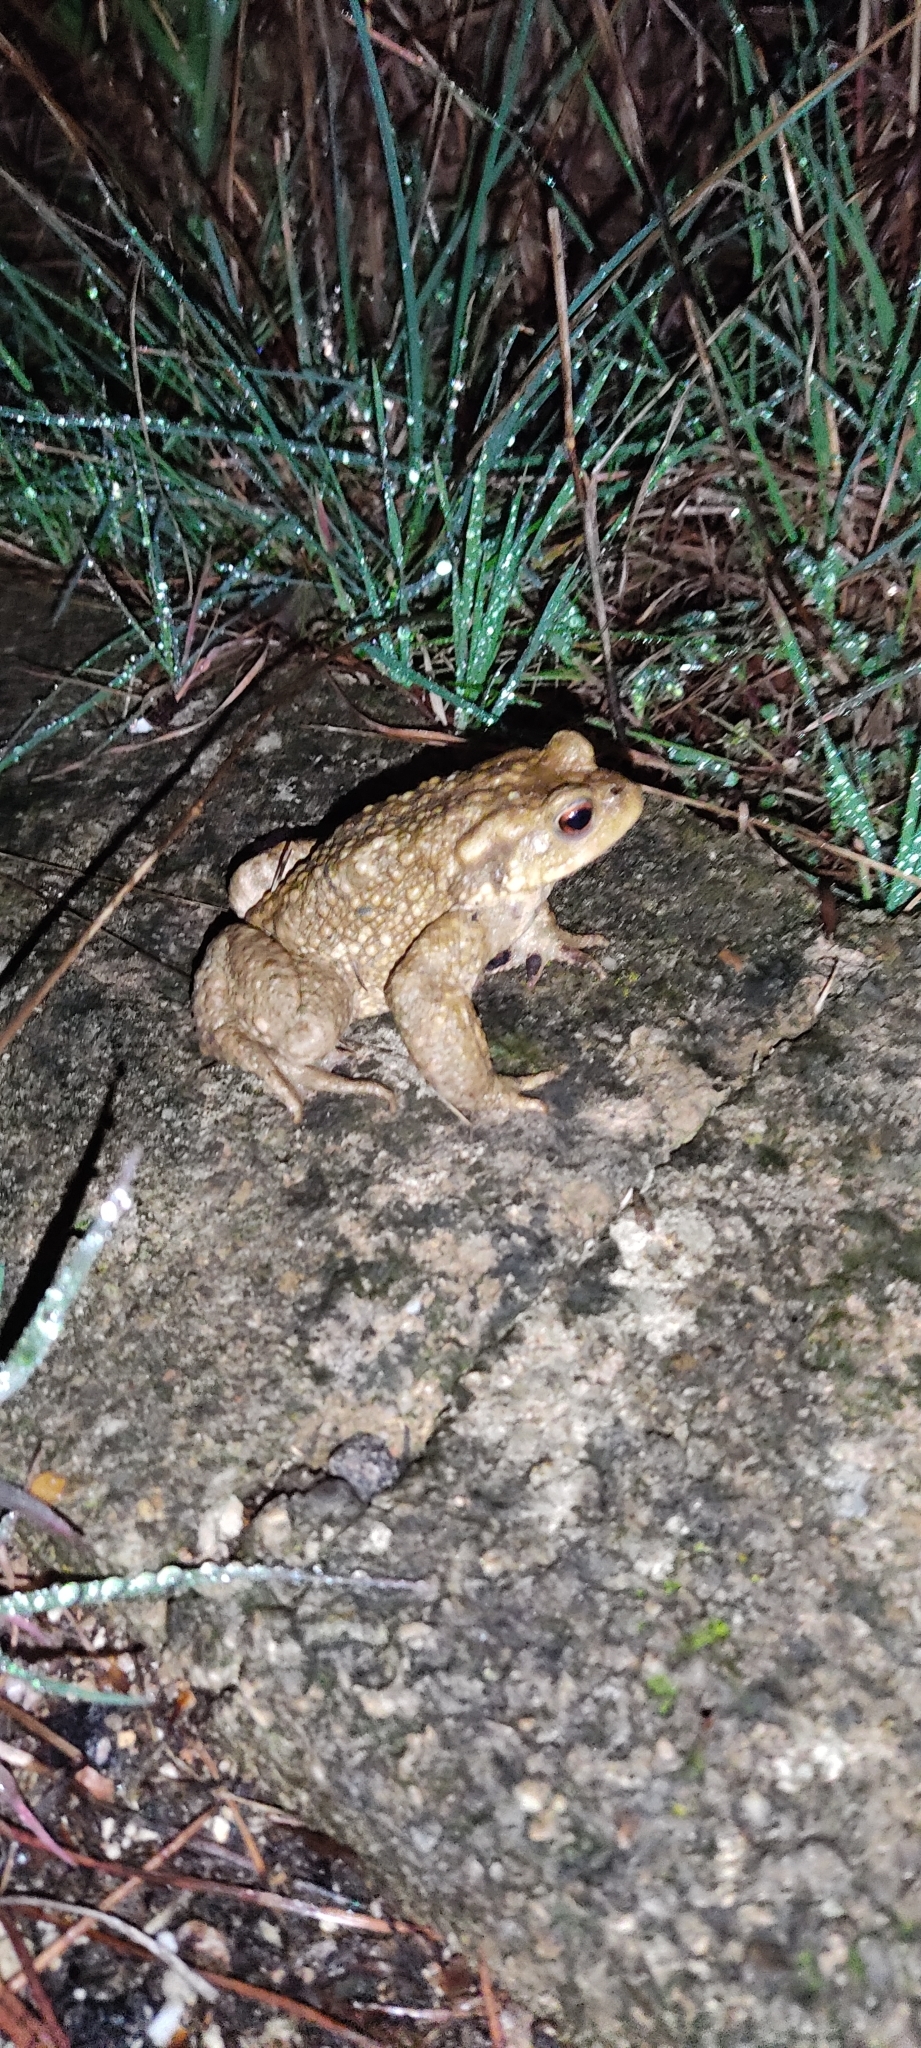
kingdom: Animalia
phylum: Chordata
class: Amphibia
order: Anura
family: Bufonidae
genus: Bufo
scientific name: Bufo spinosus
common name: Western common toad
